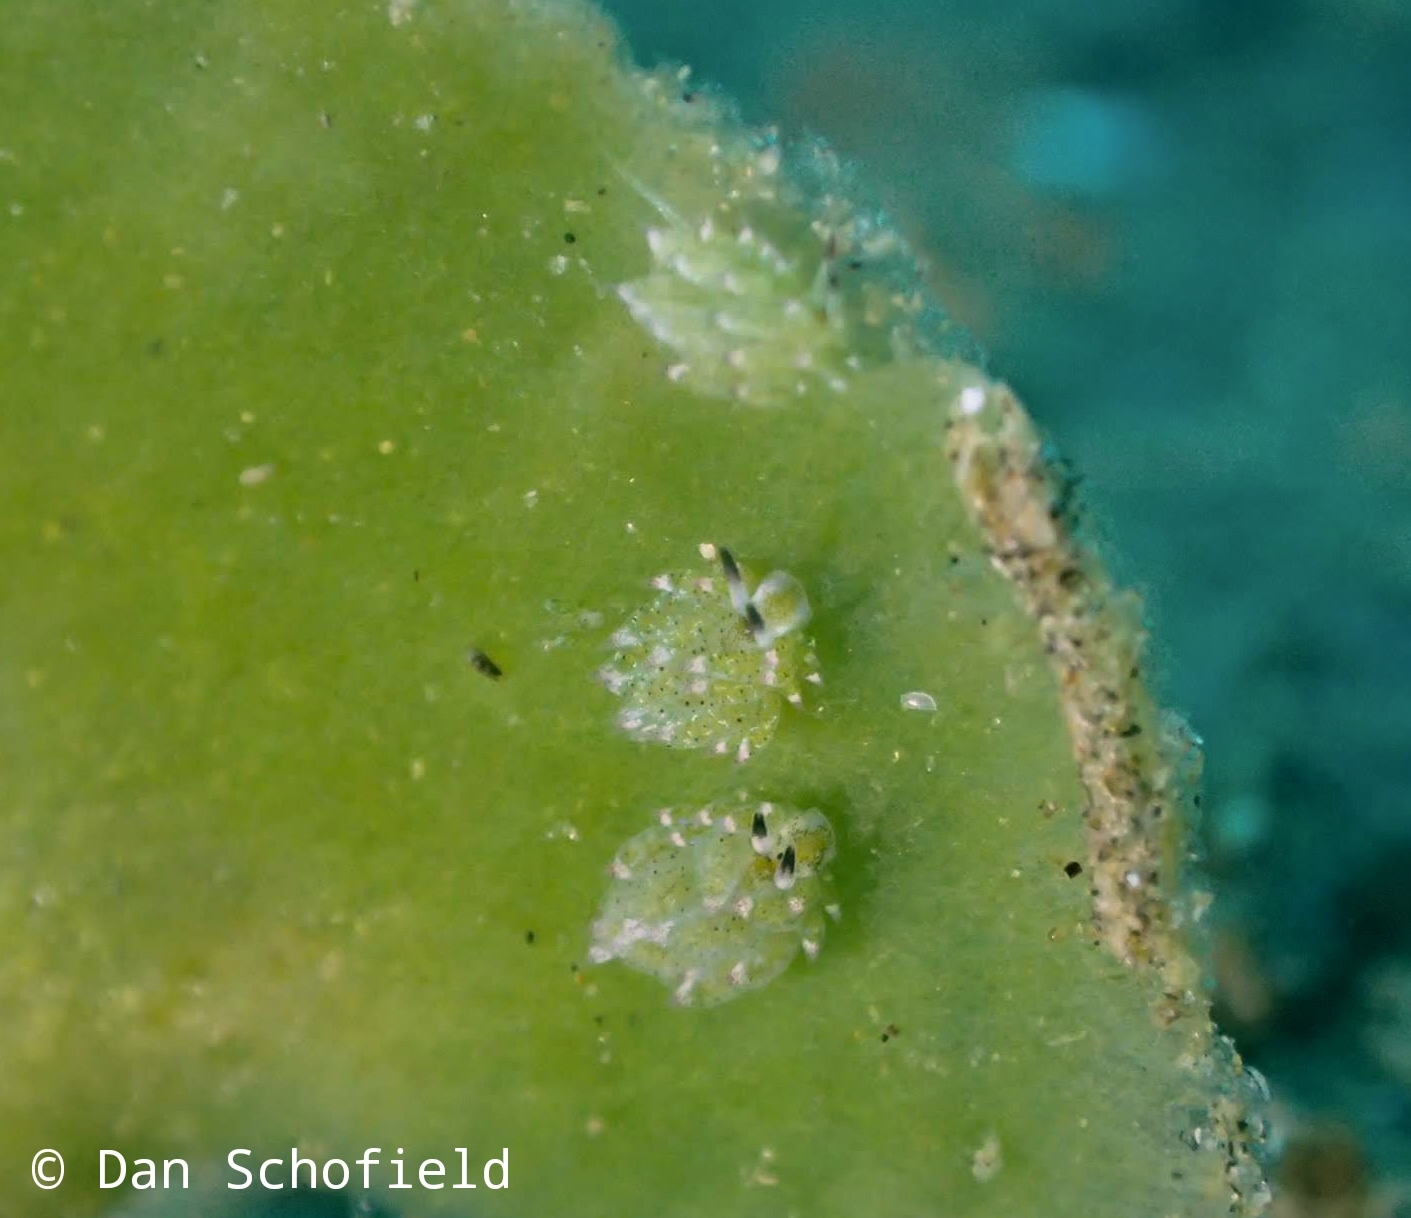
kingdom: Animalia
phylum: Mollusca
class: Gastropoda
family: Costasiellidae
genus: Costasiella
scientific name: Costasiella kuroshimae
